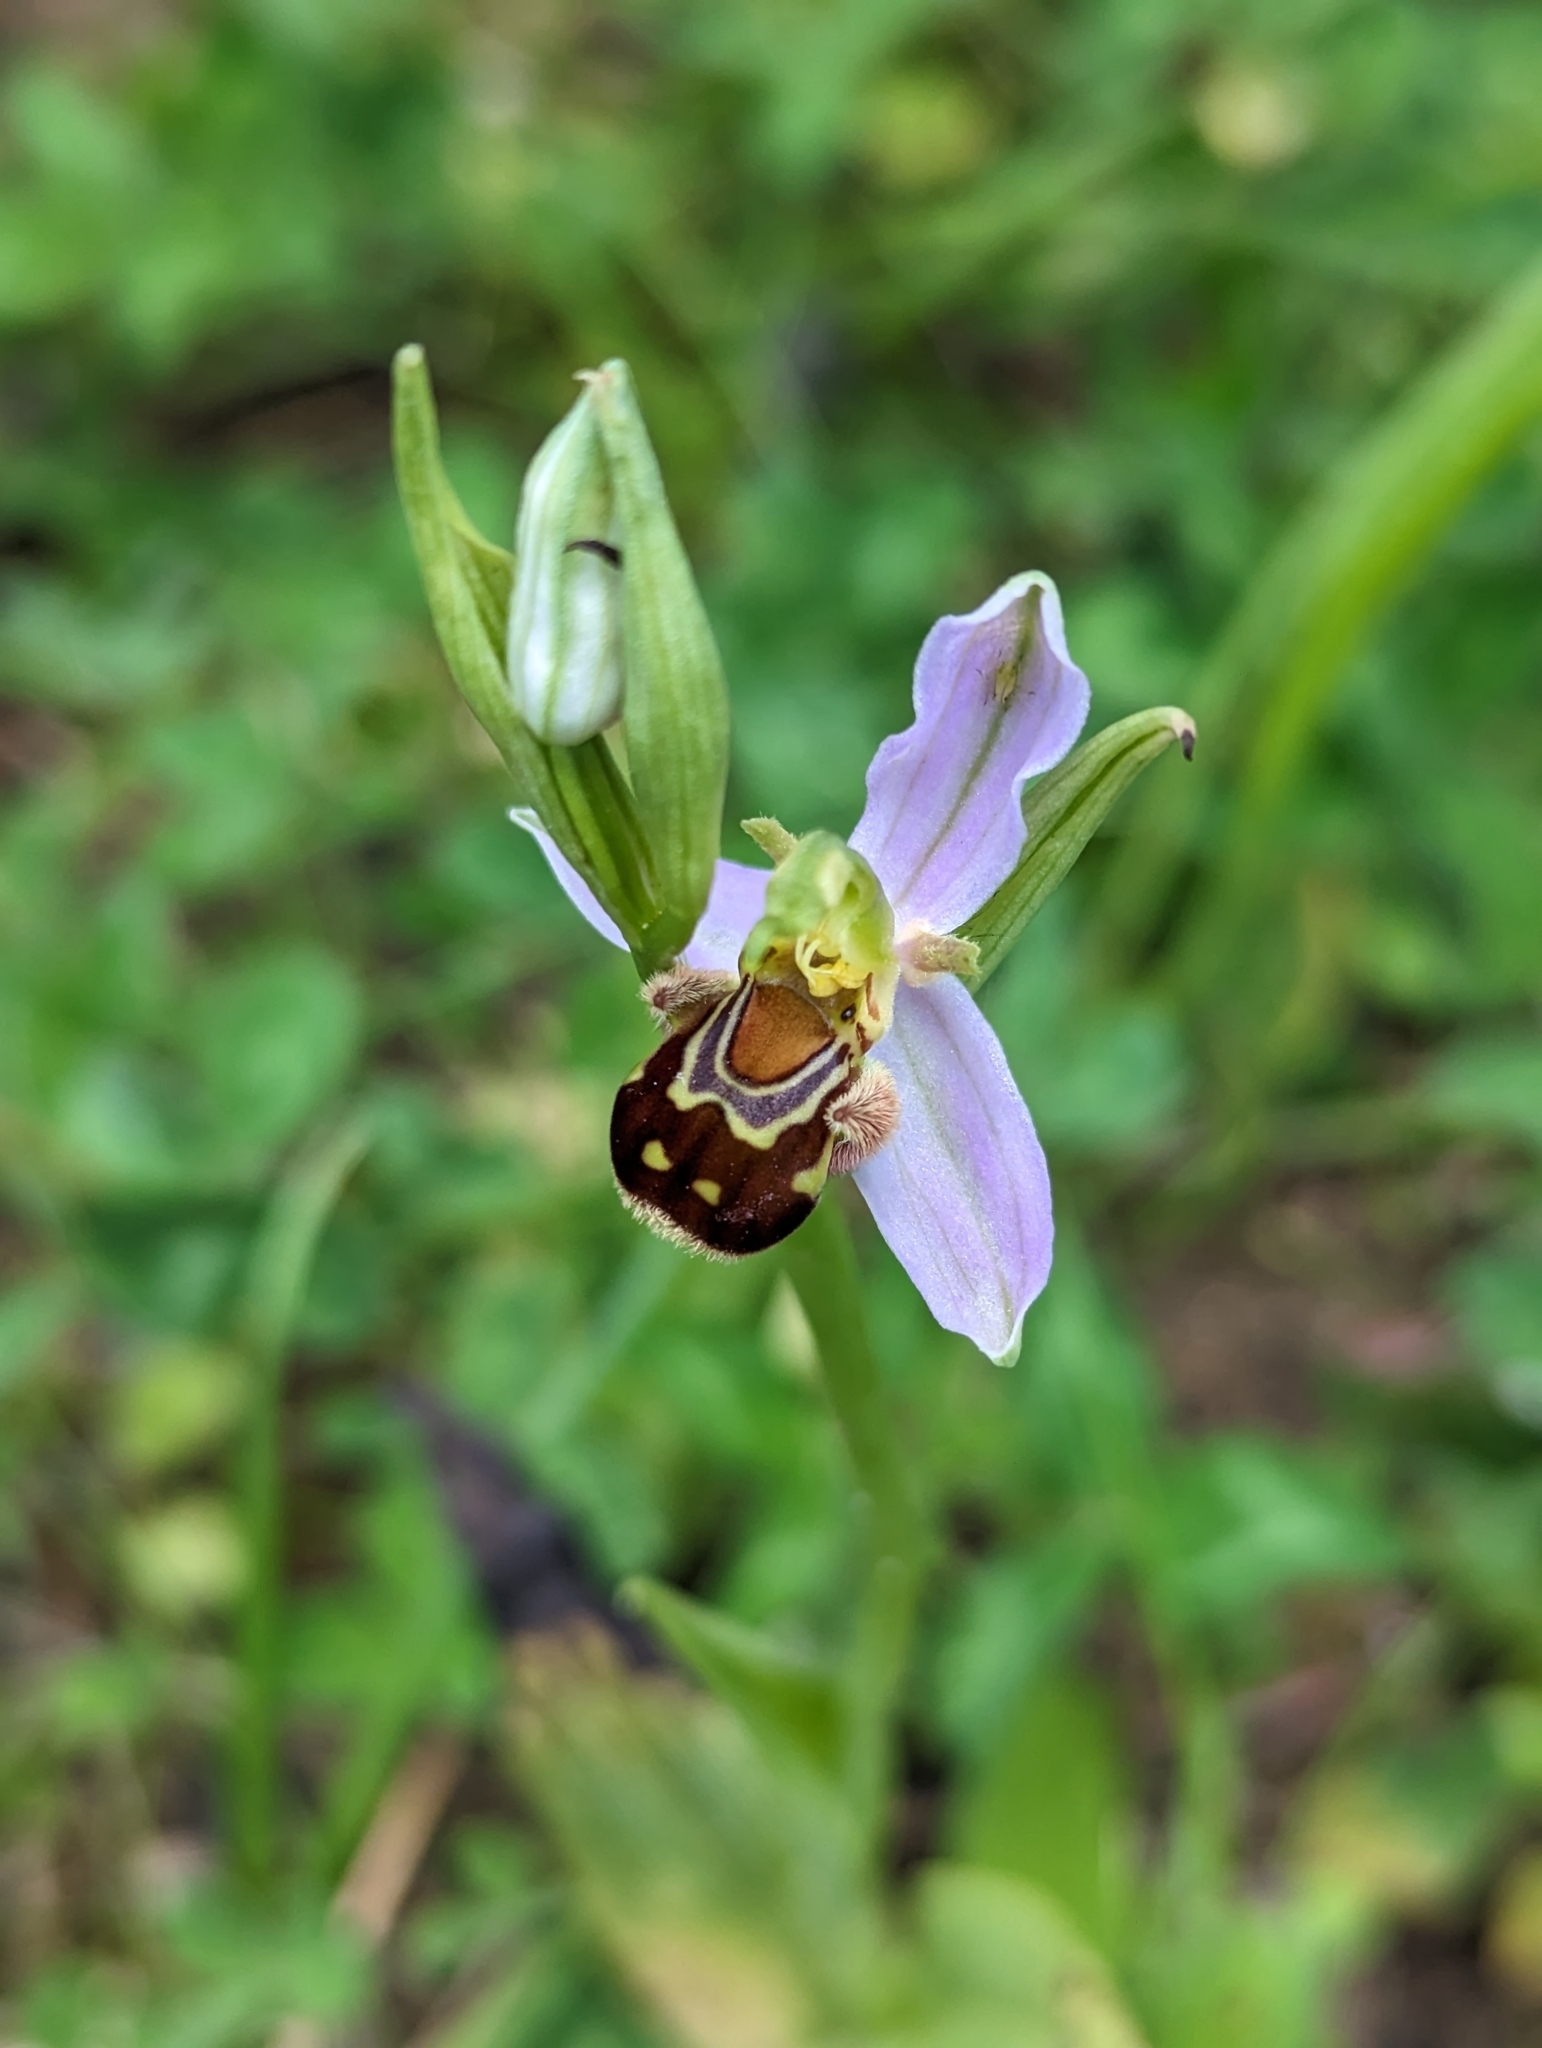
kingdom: Plantae
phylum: Tracheophyta
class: Liliopsida
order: Asparagales
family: Orchidaceae
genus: Ophrys
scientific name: Ophrys apifera
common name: Bee orchid
